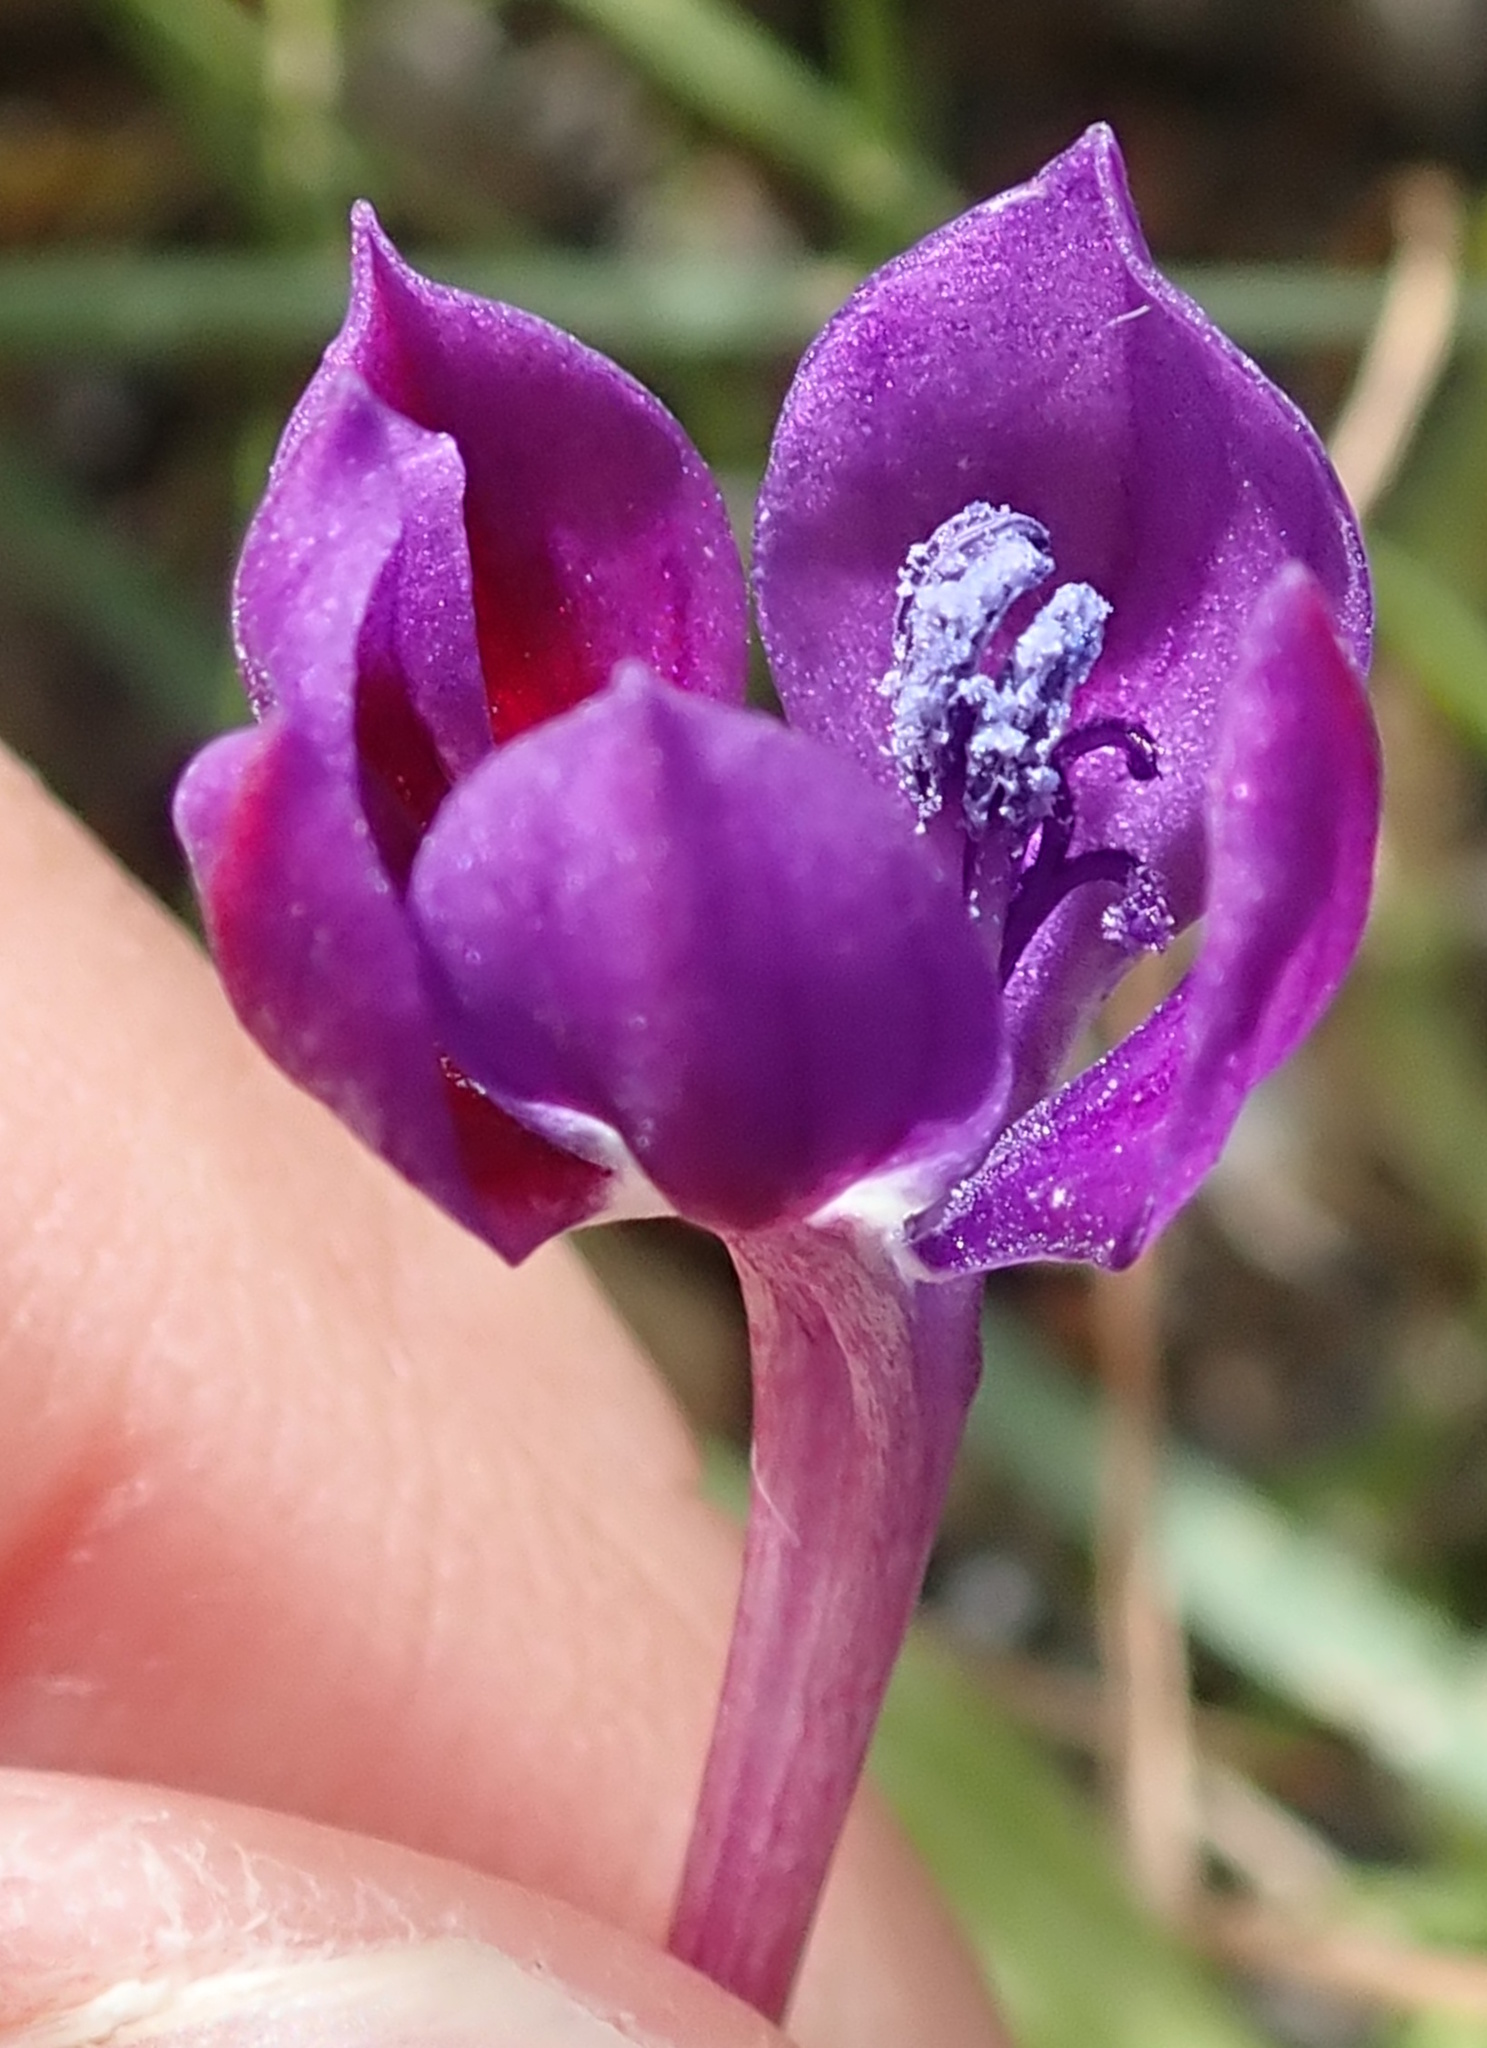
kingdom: Plantae
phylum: Tracheophyta
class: Liliopsida
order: Asparagales
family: Iridaceae
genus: Lapeirousia
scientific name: Lapeirousia jacquinii
